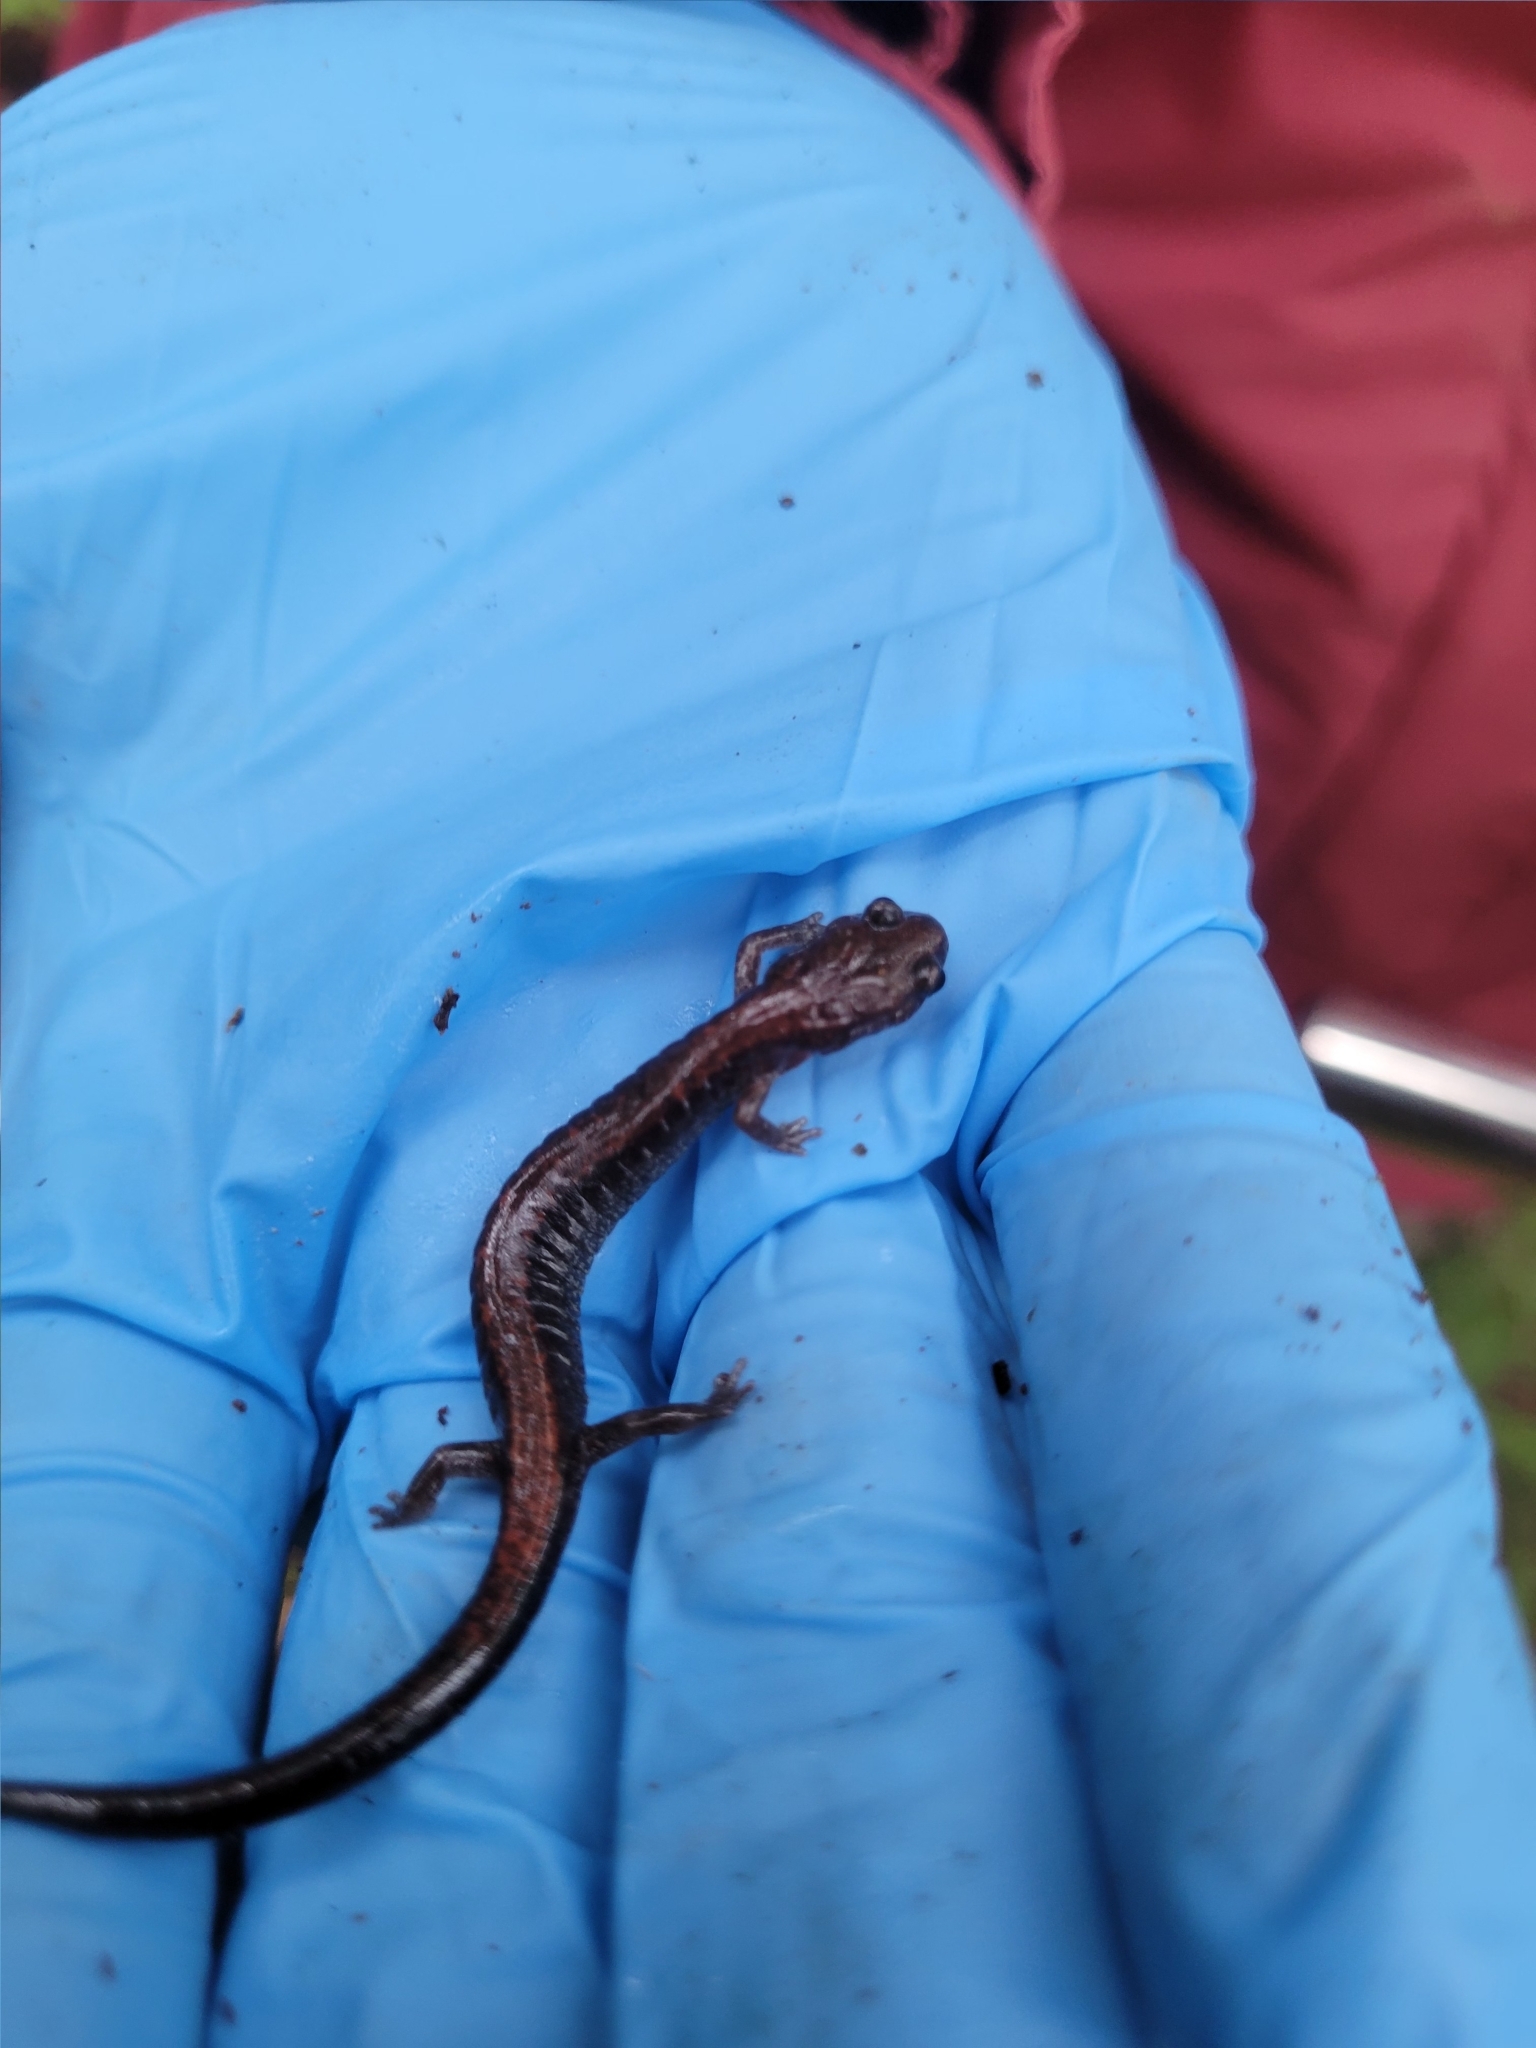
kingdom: Animalia
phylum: Chordata
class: Amphibia
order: Caudata
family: Plethodontidae
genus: Plethodon
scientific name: Plethodon cinereus
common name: Redback salamander
